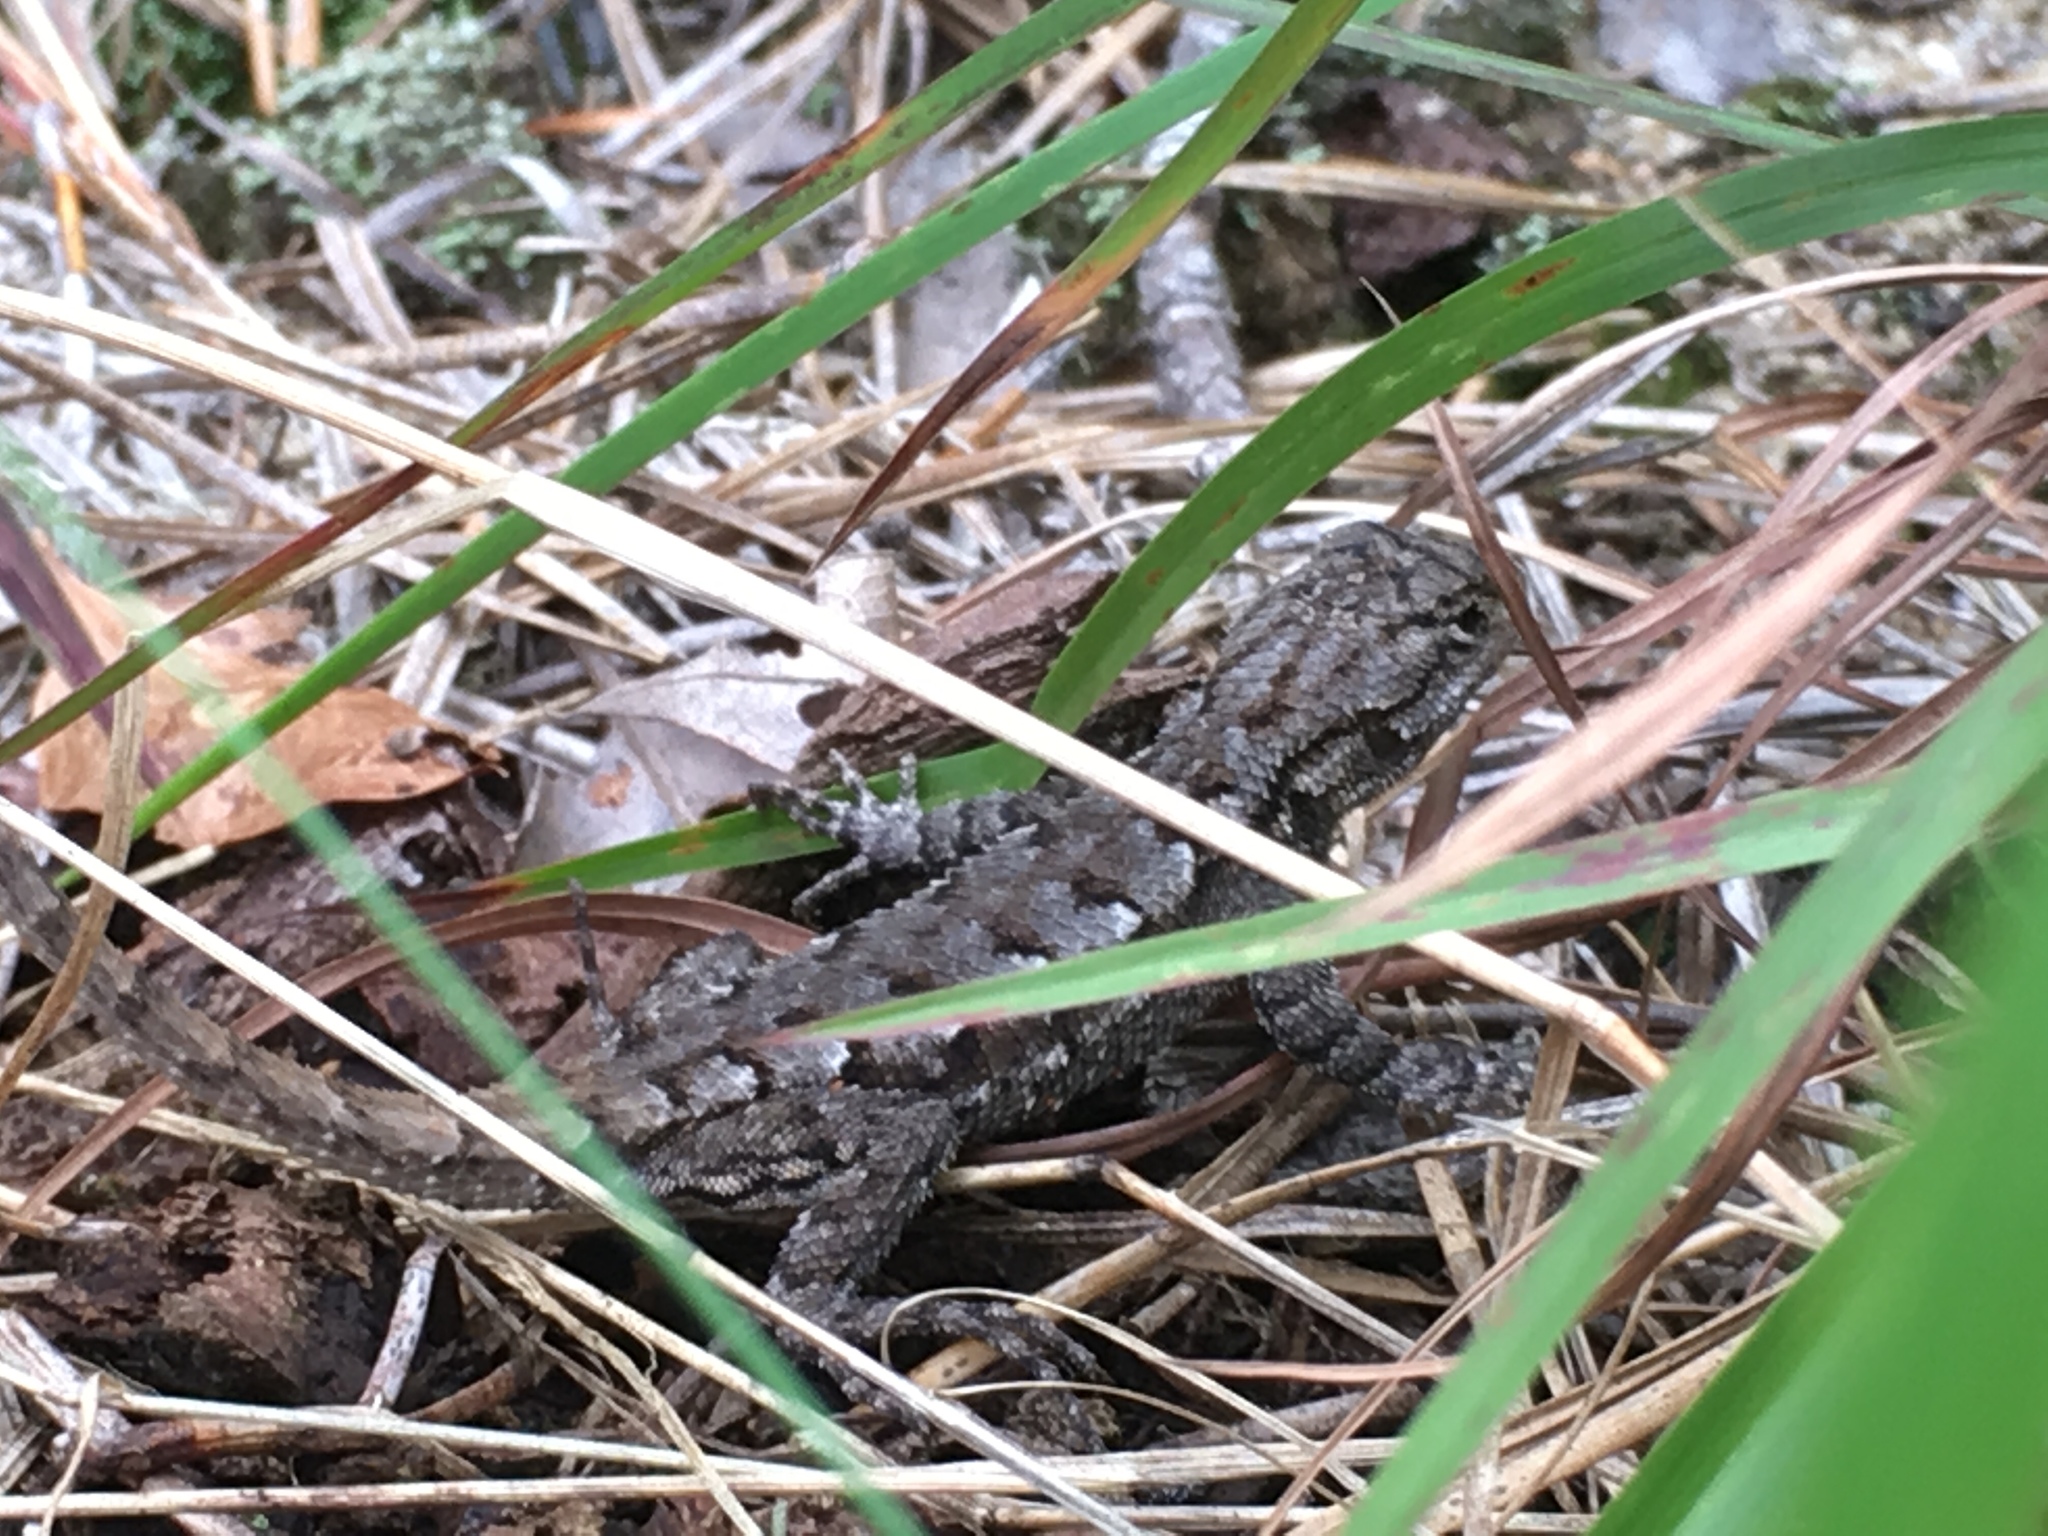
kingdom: Animalia
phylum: Chordata
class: Squamata
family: Phrynosomatidae
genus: Sceloporus
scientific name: Sceloporus undulatus
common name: Eastern fence lizard
